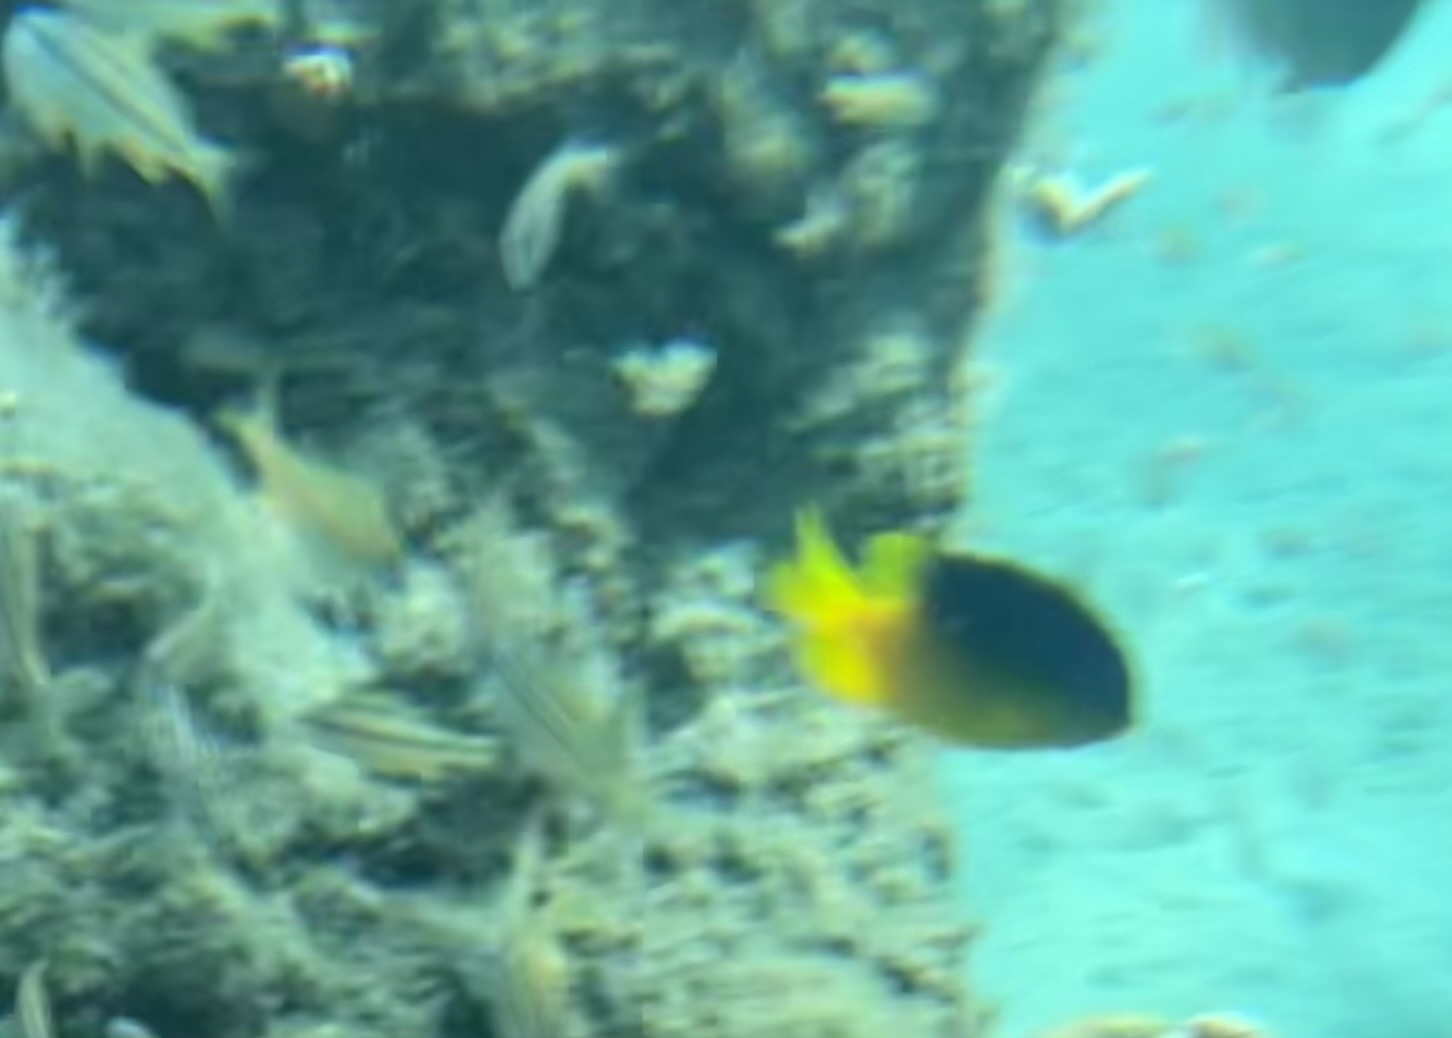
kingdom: Animalia
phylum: Chordata
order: Perciformes
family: Pomacentridae
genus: Stegastes
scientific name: Stegastes leucostictus
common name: Beaugregory
